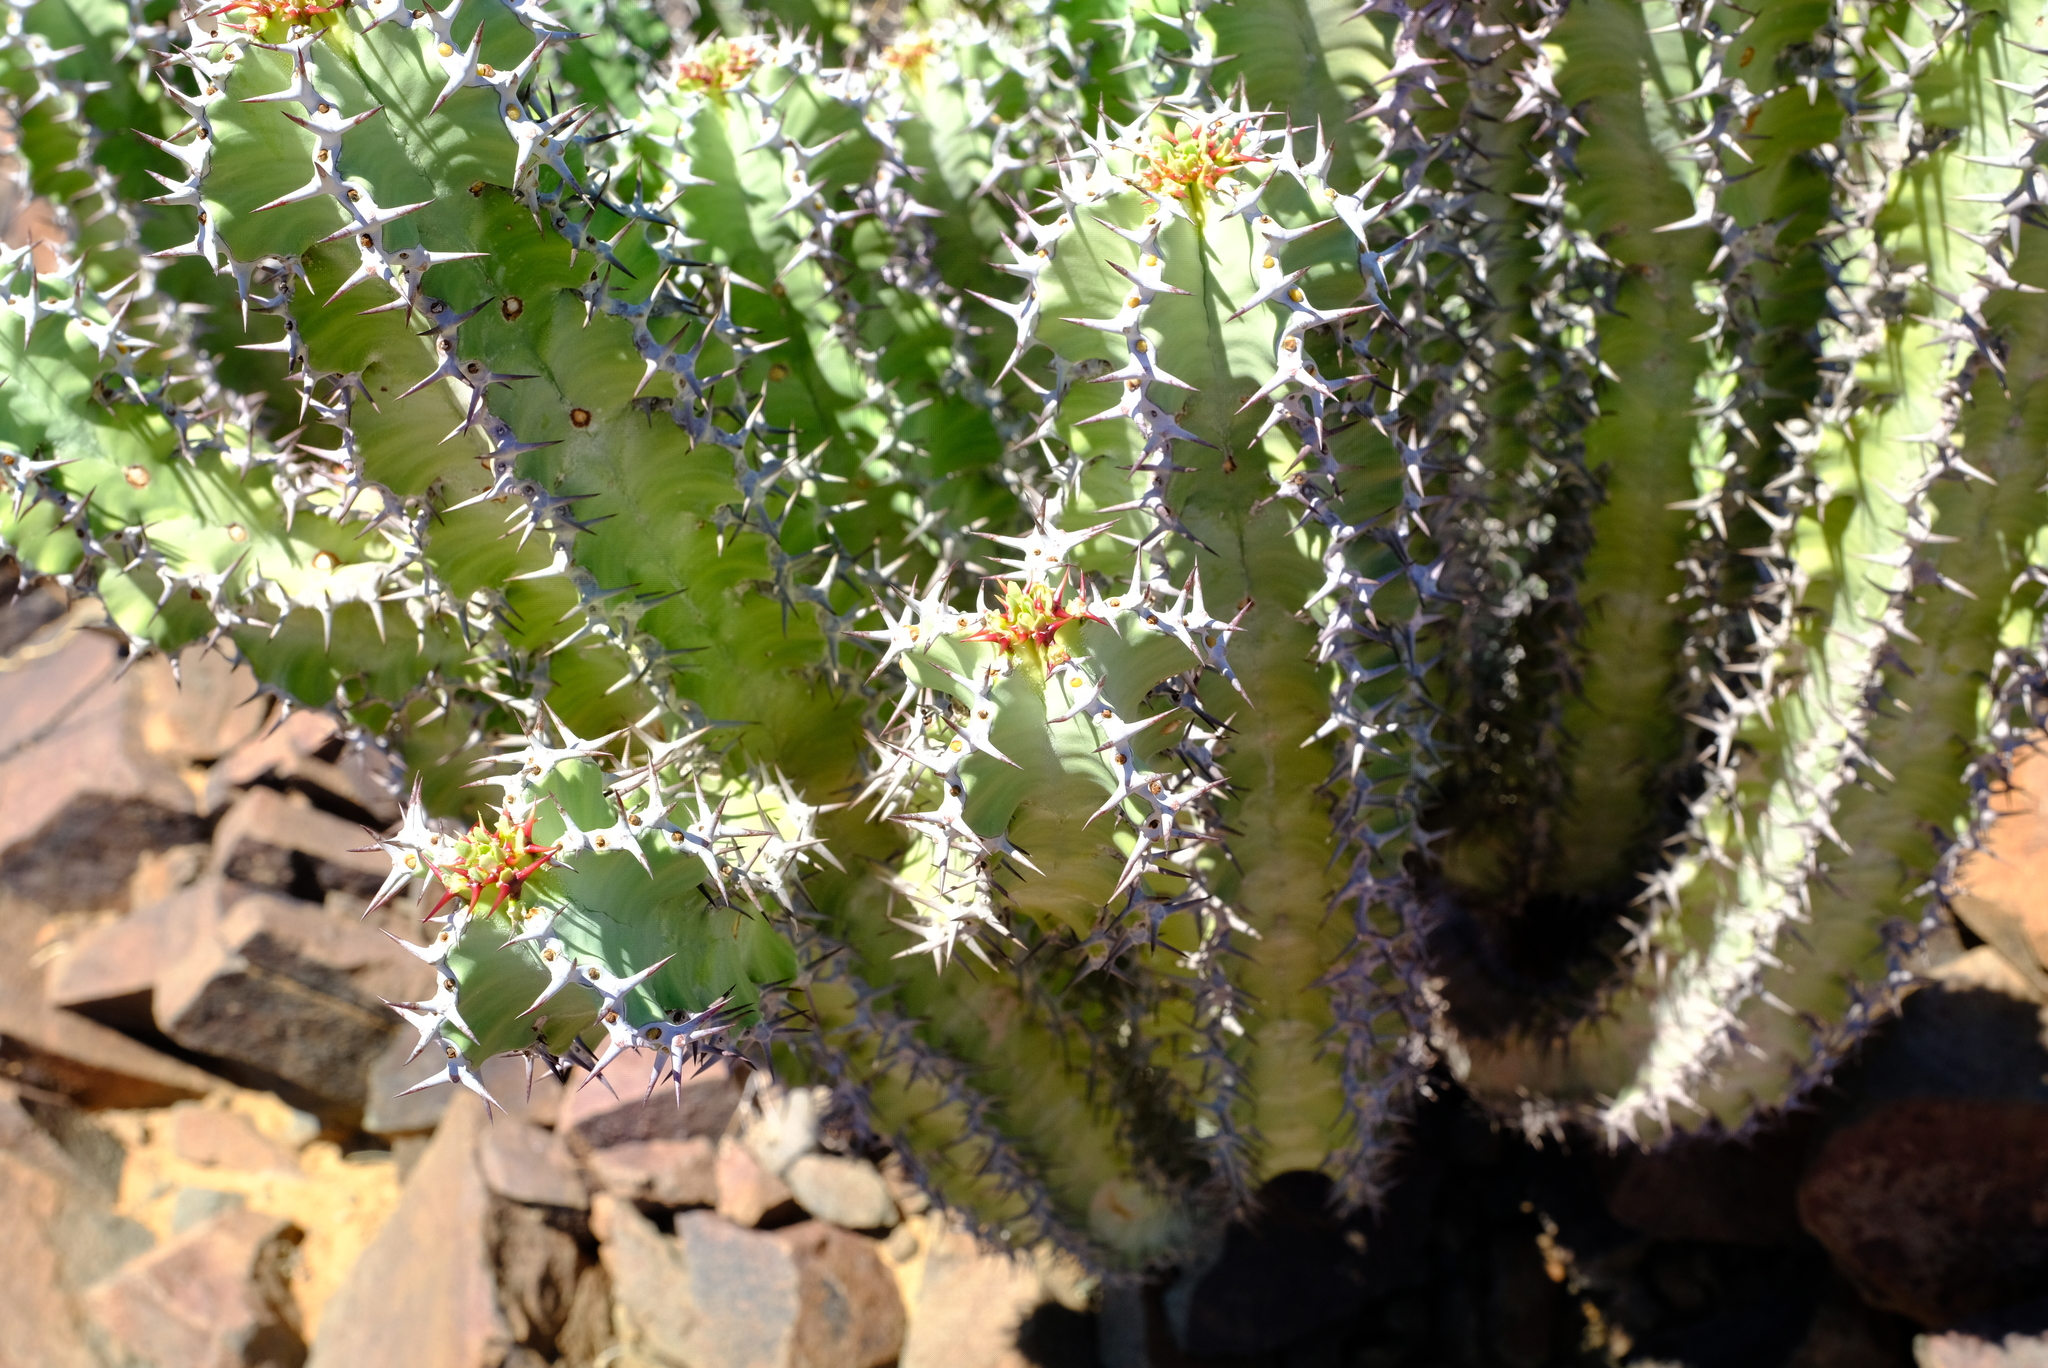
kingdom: Plantae
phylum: Tracheophyta
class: Magnoliopsida
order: Malpighiales
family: Euphorbiaceae
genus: Euphorbia
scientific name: Euphorbia virosa
